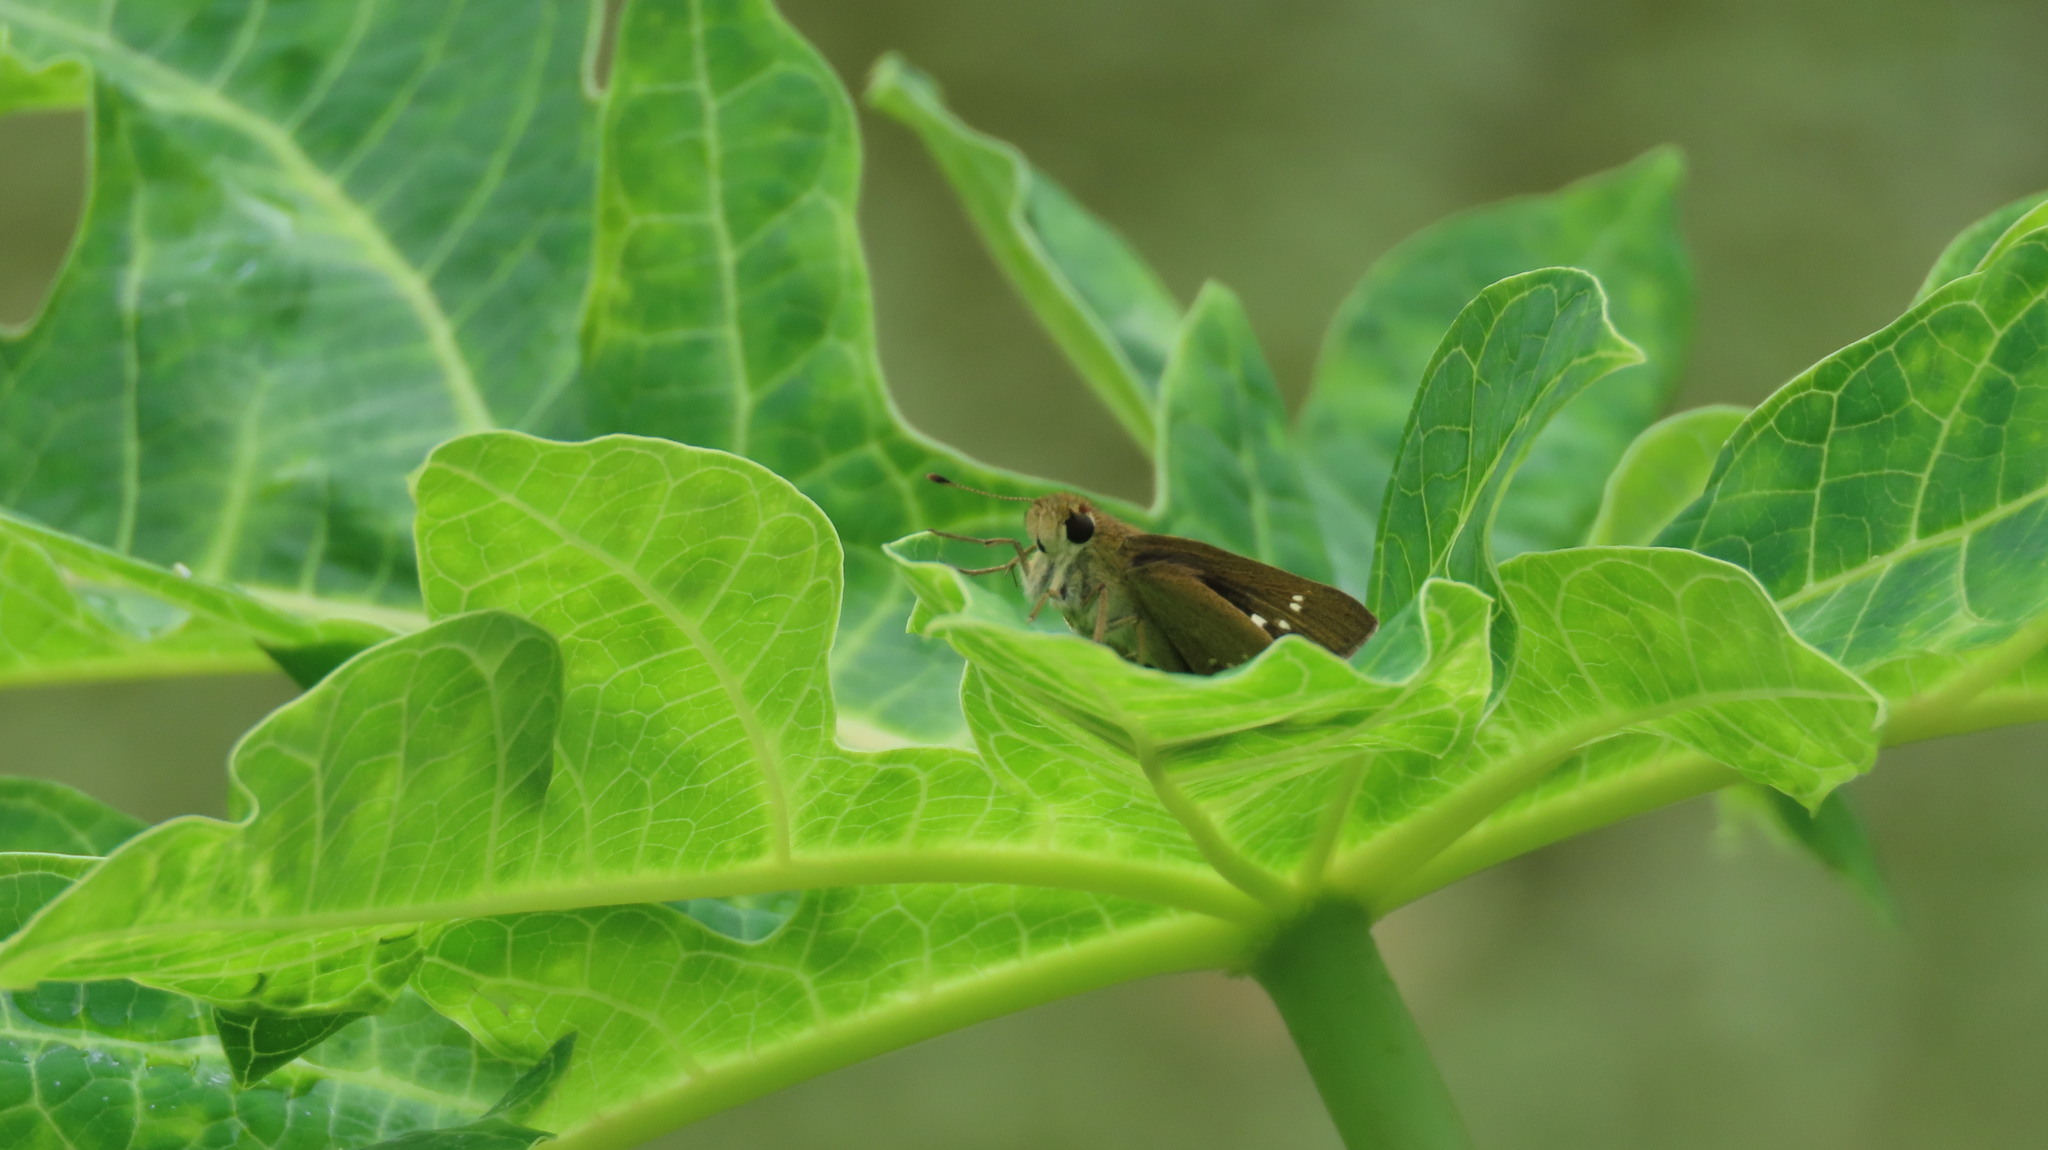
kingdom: Animalia
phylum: Arthropoda
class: Insecta
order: Lepidoptera
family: Hesperiidae
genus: Parnara
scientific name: Parnara naso
